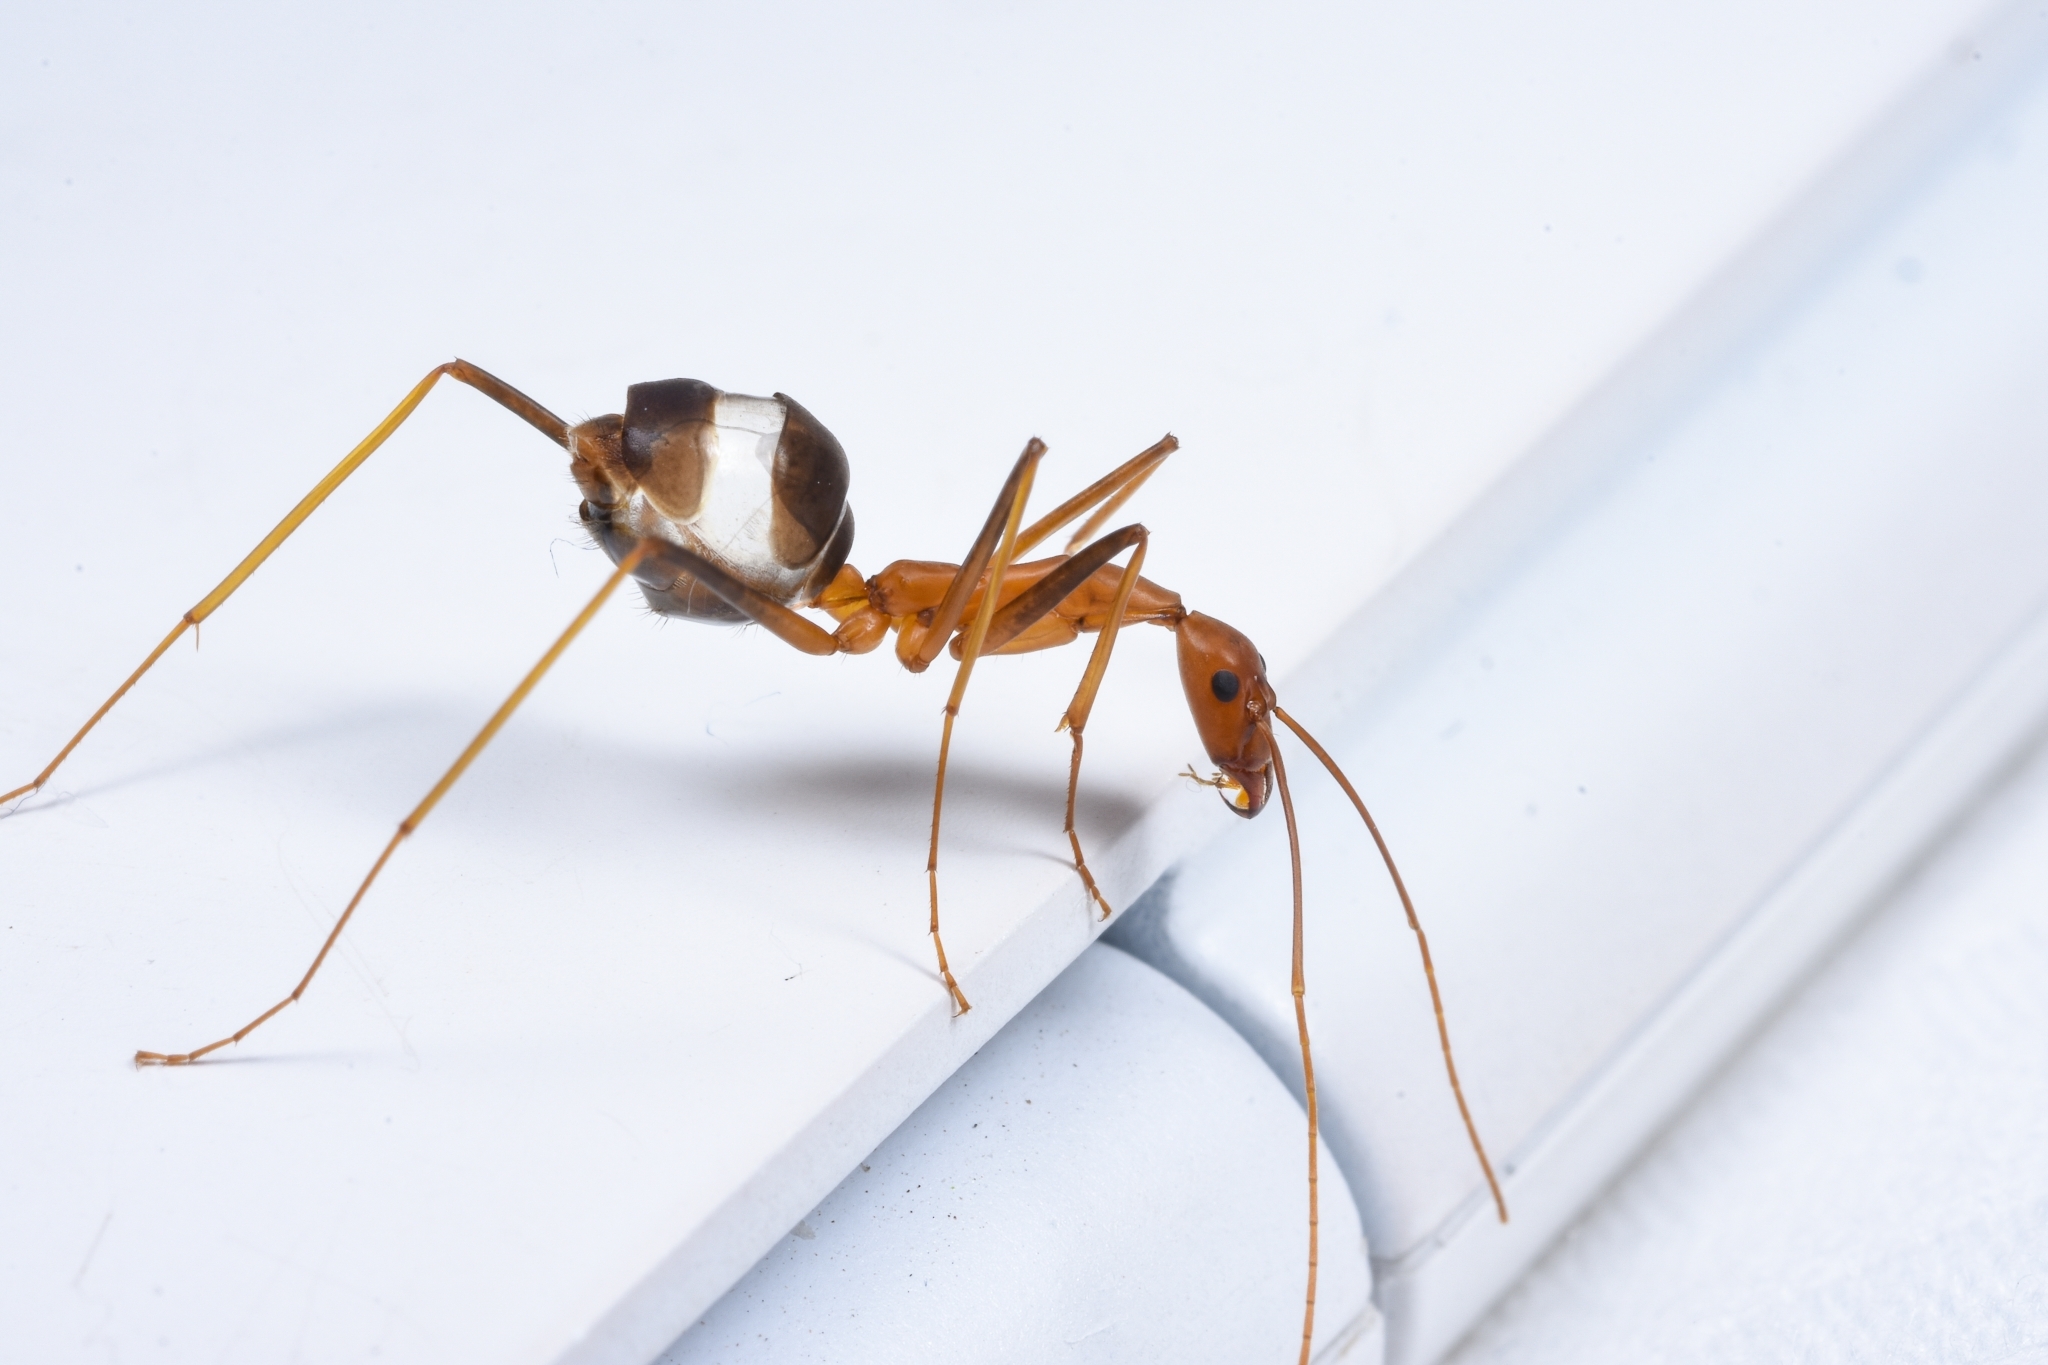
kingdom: Animalia
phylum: Arthropoda
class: Insecta
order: Hymenoptera
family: Formicidae
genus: Leptomyrmex
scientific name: Leptomyrmex rufipes
